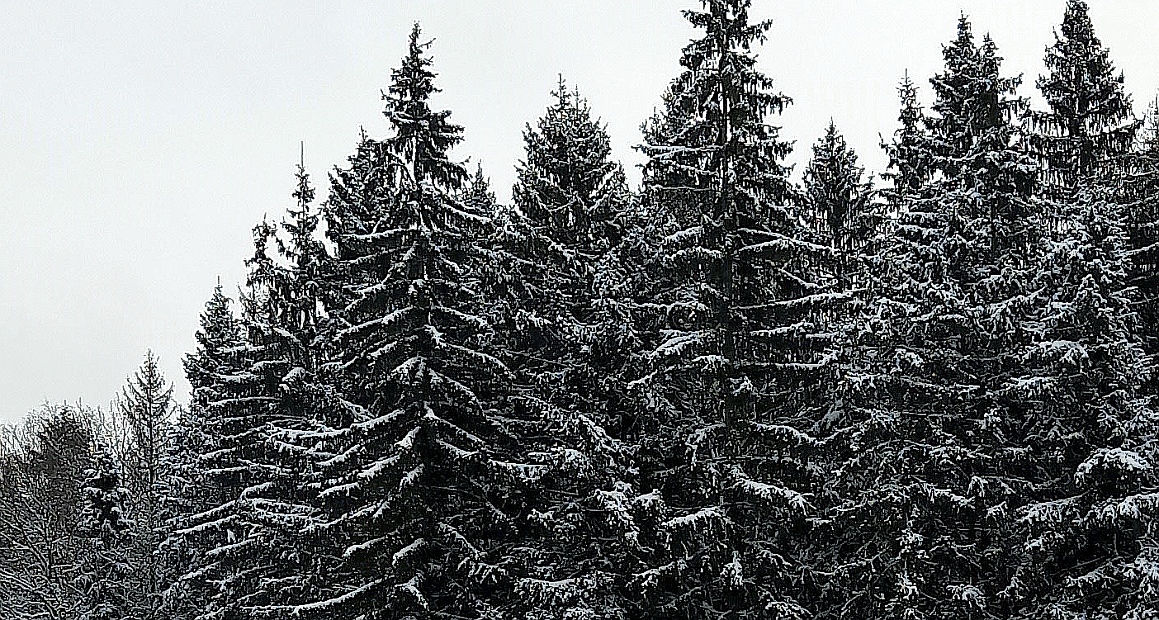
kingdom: Plantae
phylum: Tracheophyta
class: Pinopsida
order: Pinales
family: Pinaceae
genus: Picea
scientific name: Picea abies
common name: Norway spruce
